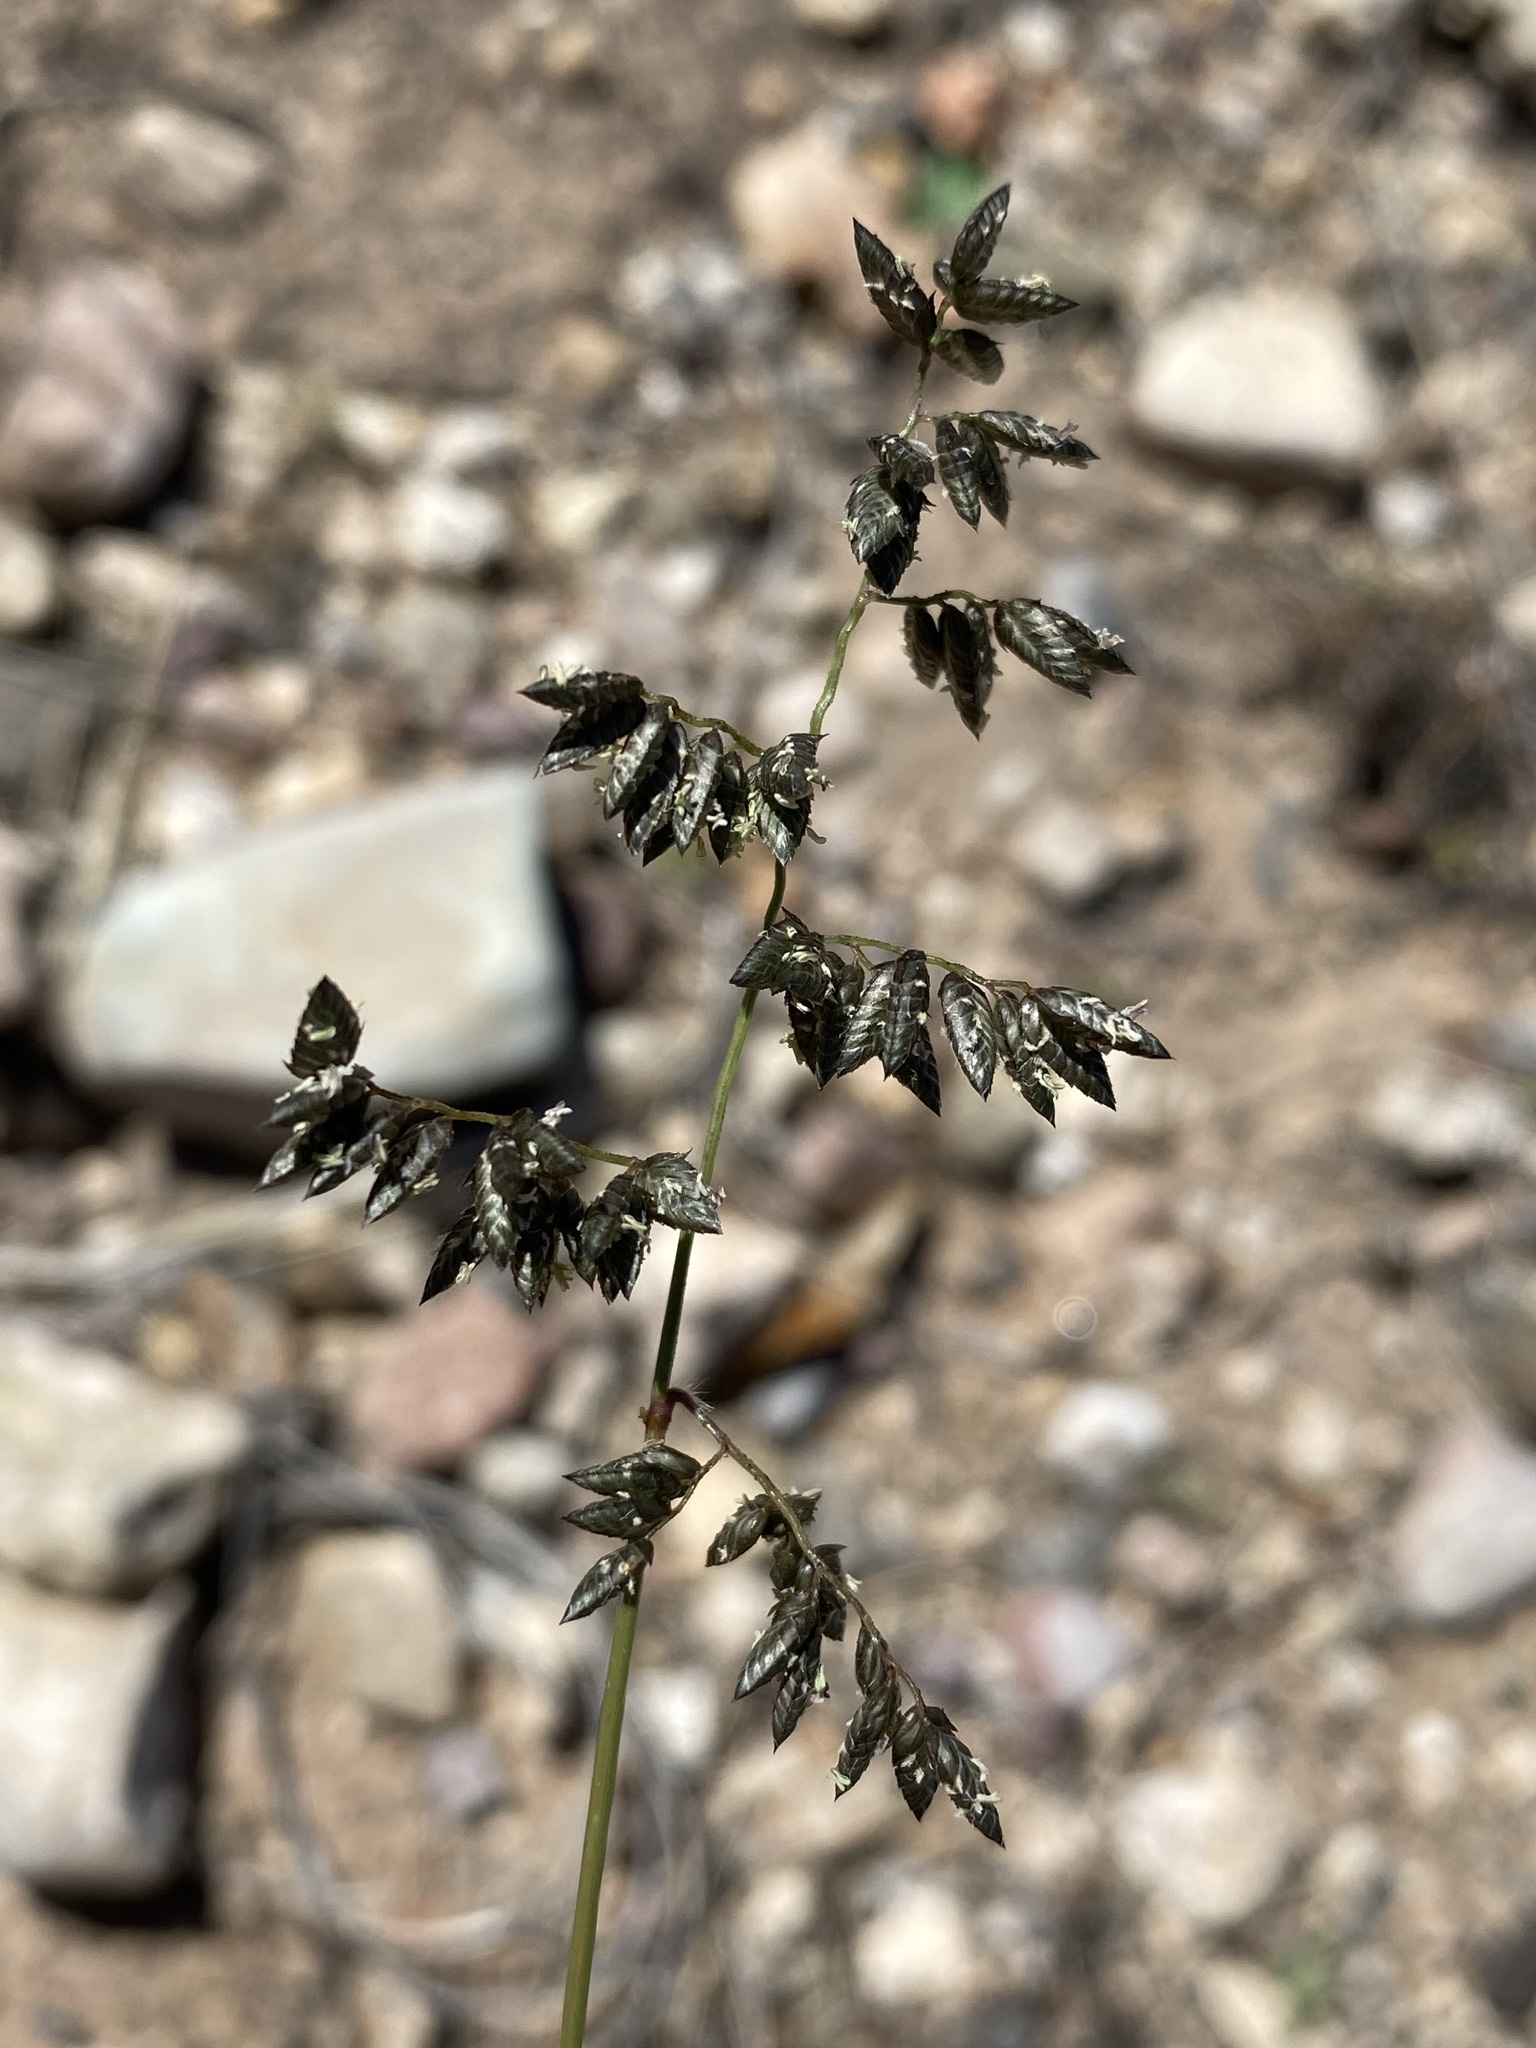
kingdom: Plantae
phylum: Tracheophyta
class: Liliopsida
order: Poales
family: Poaceae
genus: Eragrostis
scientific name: Eragrostis echinochloidea
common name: African lovegrass
